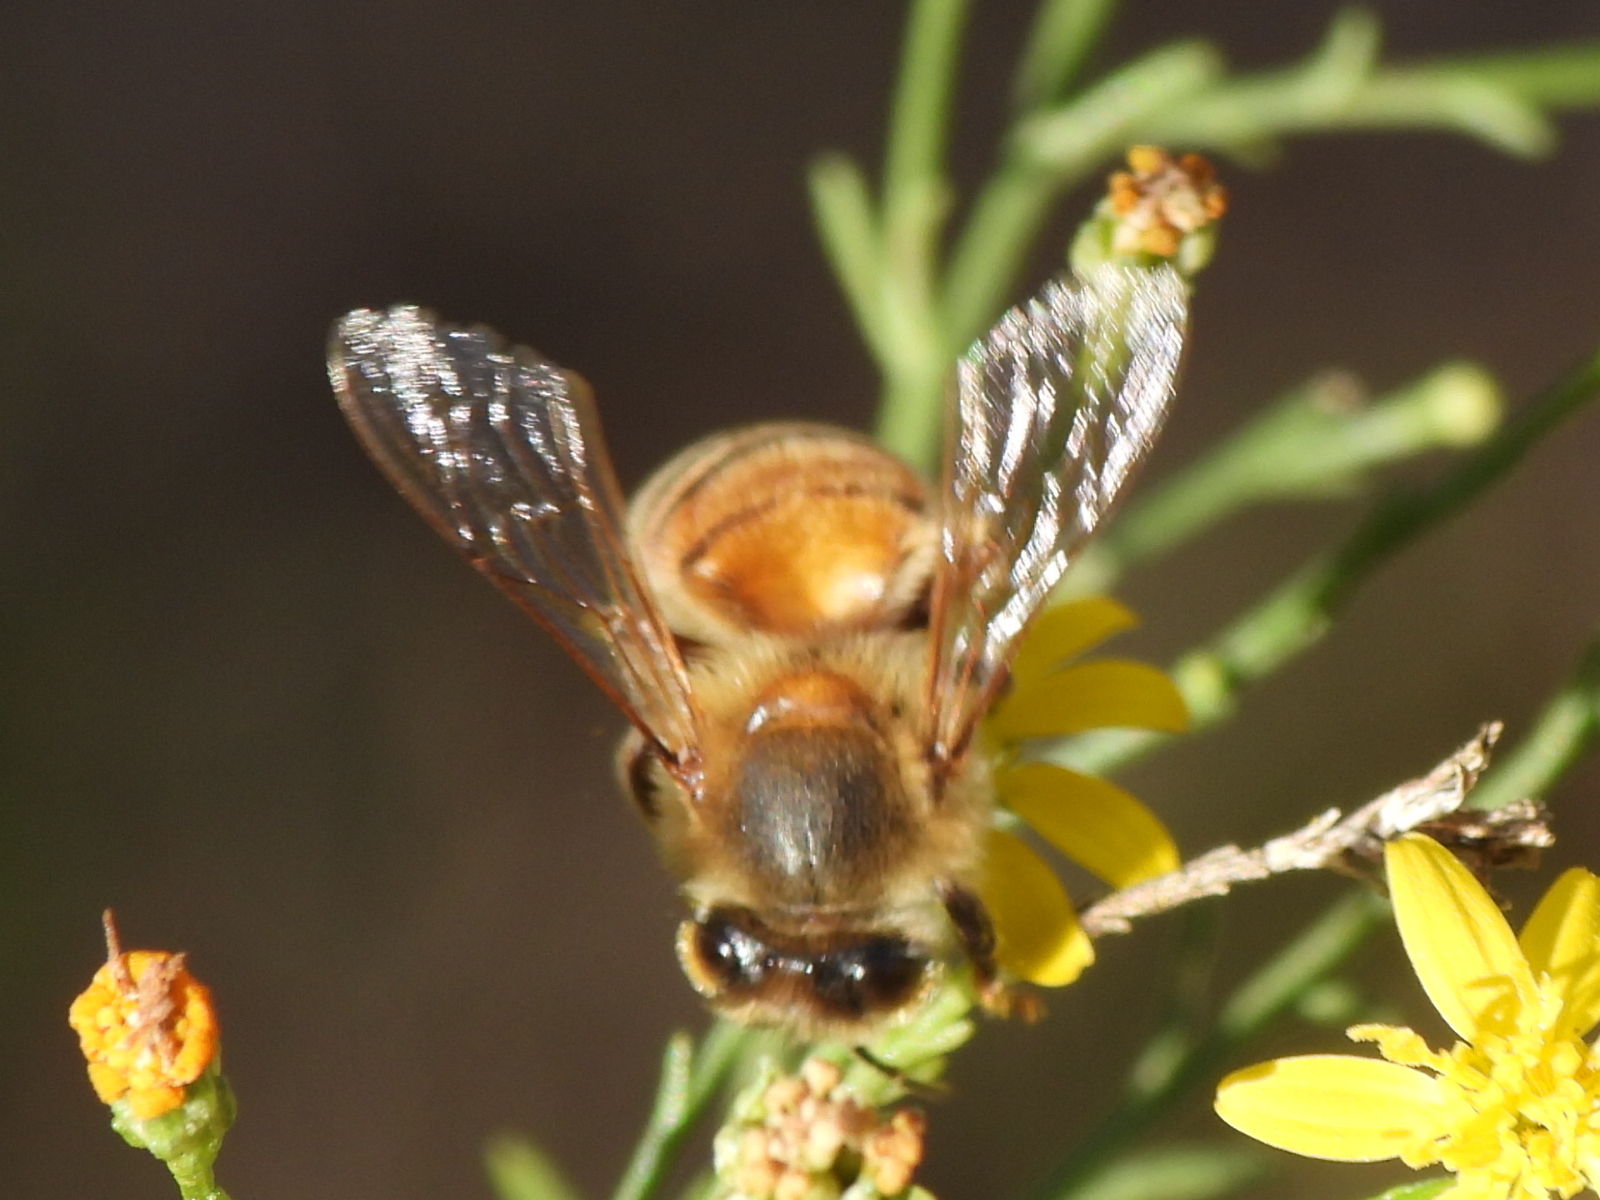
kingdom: Animalia
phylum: Arthropoda
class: Insecta
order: Hymenoptera
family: Apidae
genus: Apis
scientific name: Apis mellifera
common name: Honey bee
